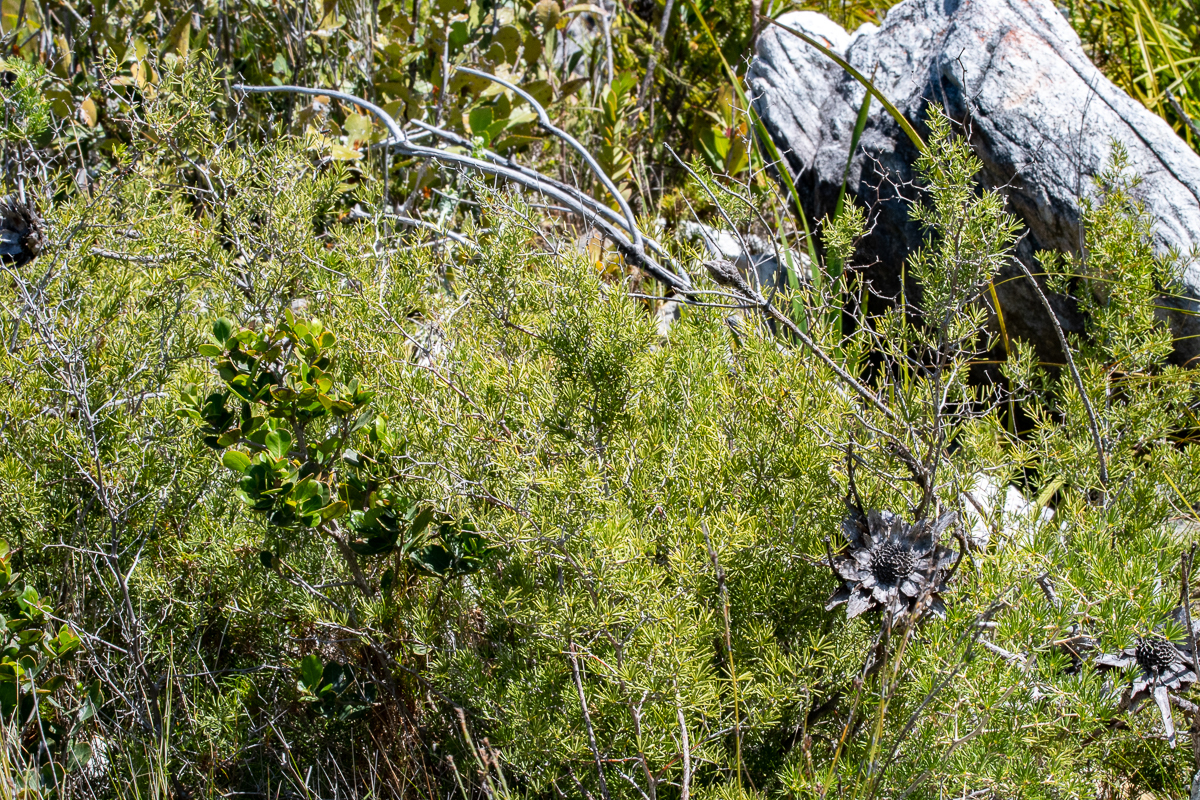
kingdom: Plantae
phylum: Tracheophyta
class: Liliopsida
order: Asparagales
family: Asparagaceae
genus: Asparagus
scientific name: Asparagus lignosus
